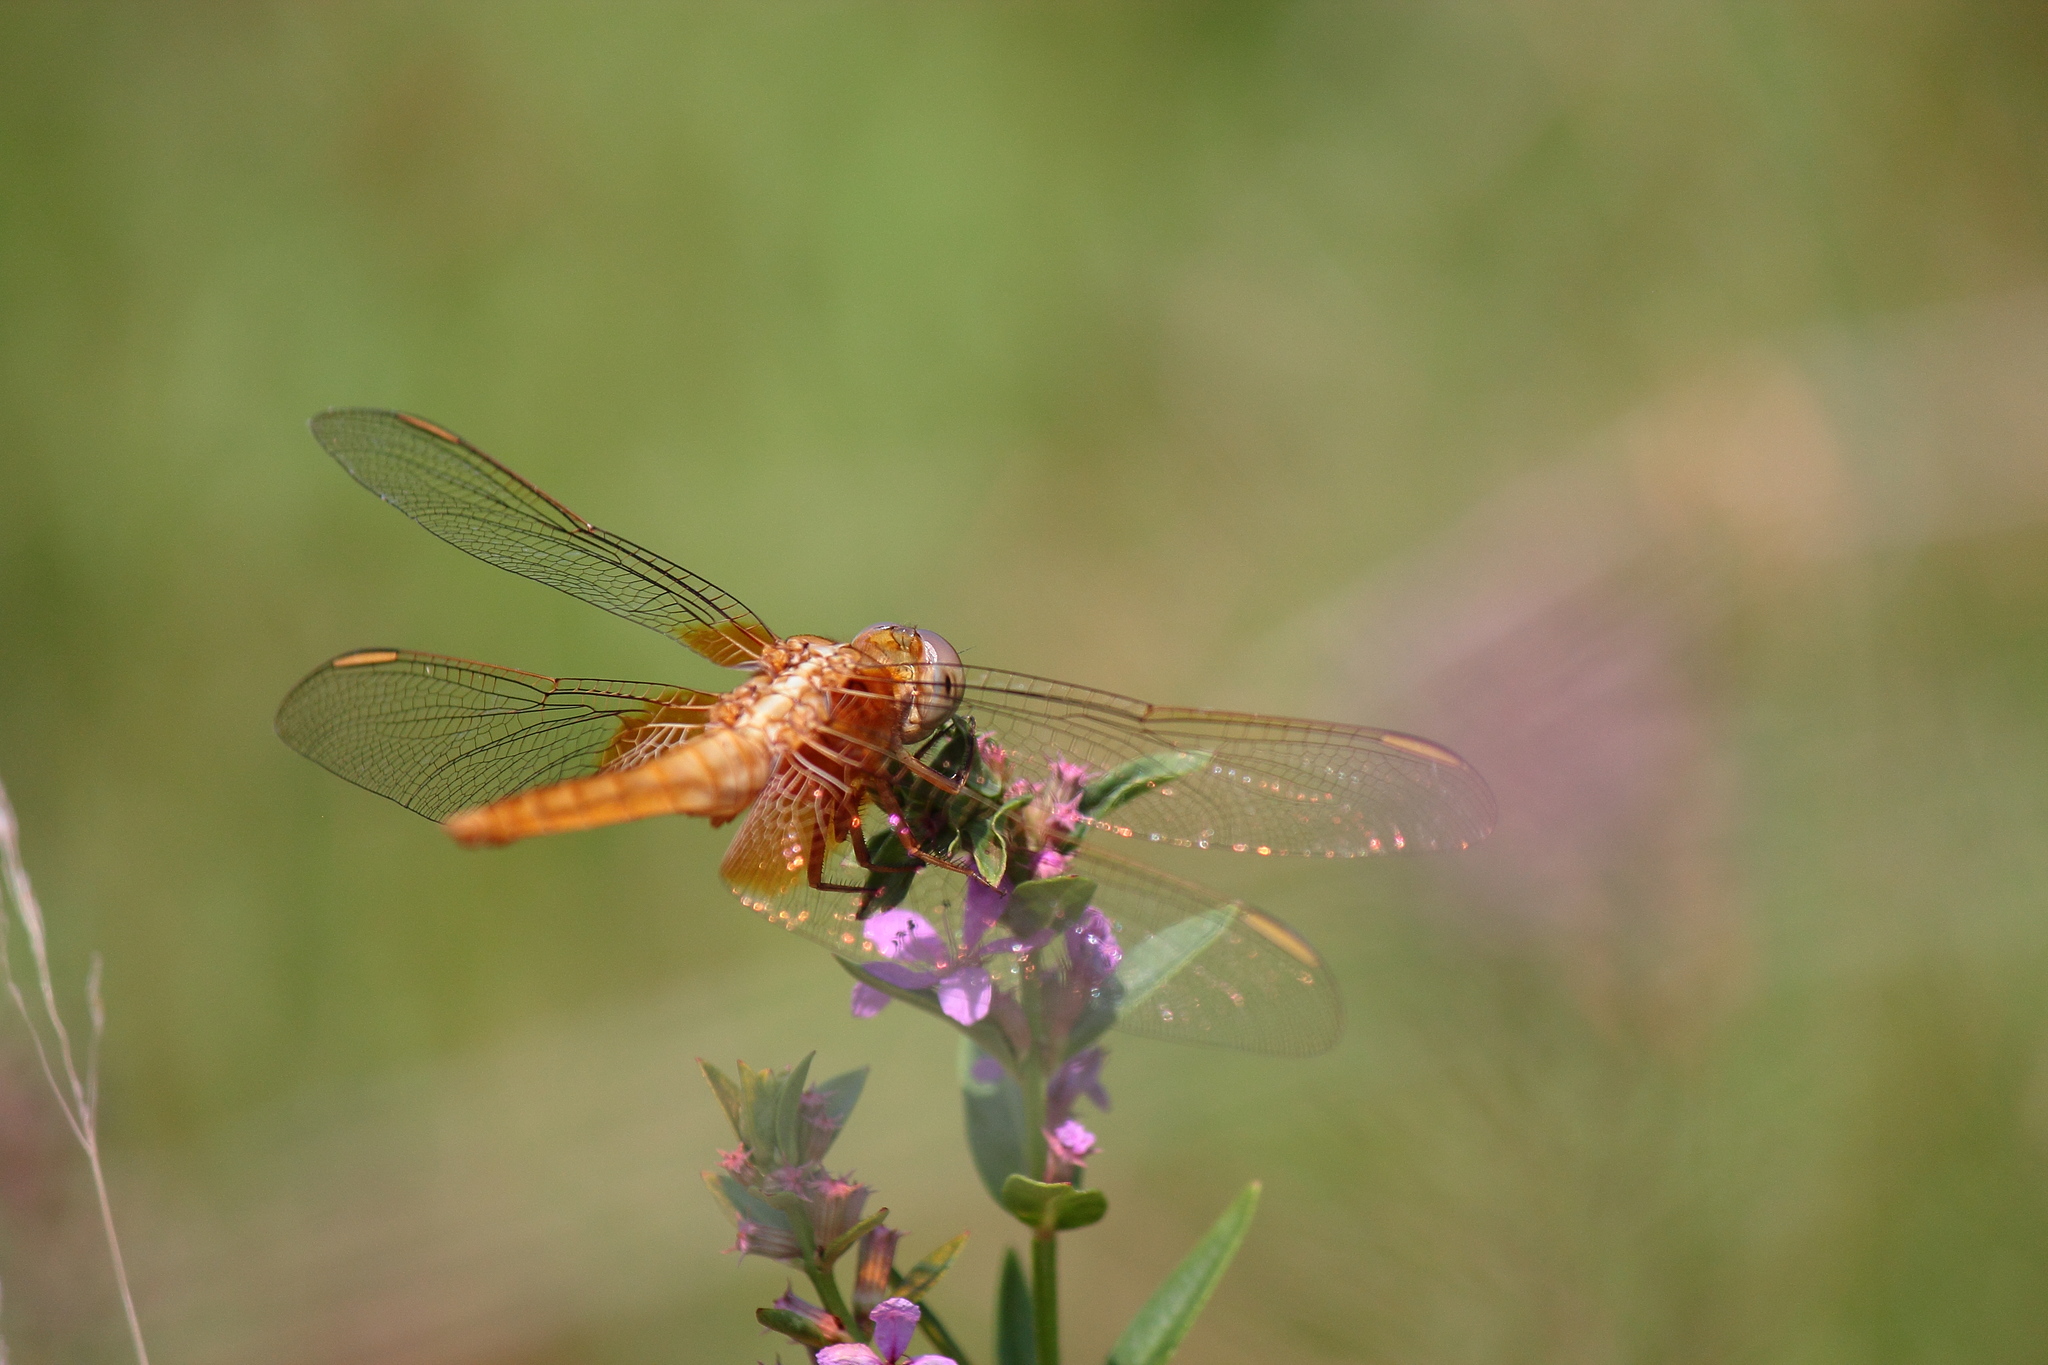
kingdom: Animalia
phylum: Arthropoda
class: Insecta
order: Odonata
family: Libellulidae
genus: Crocothemis
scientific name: Crocothemis servilia
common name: Scarlet skimmer
